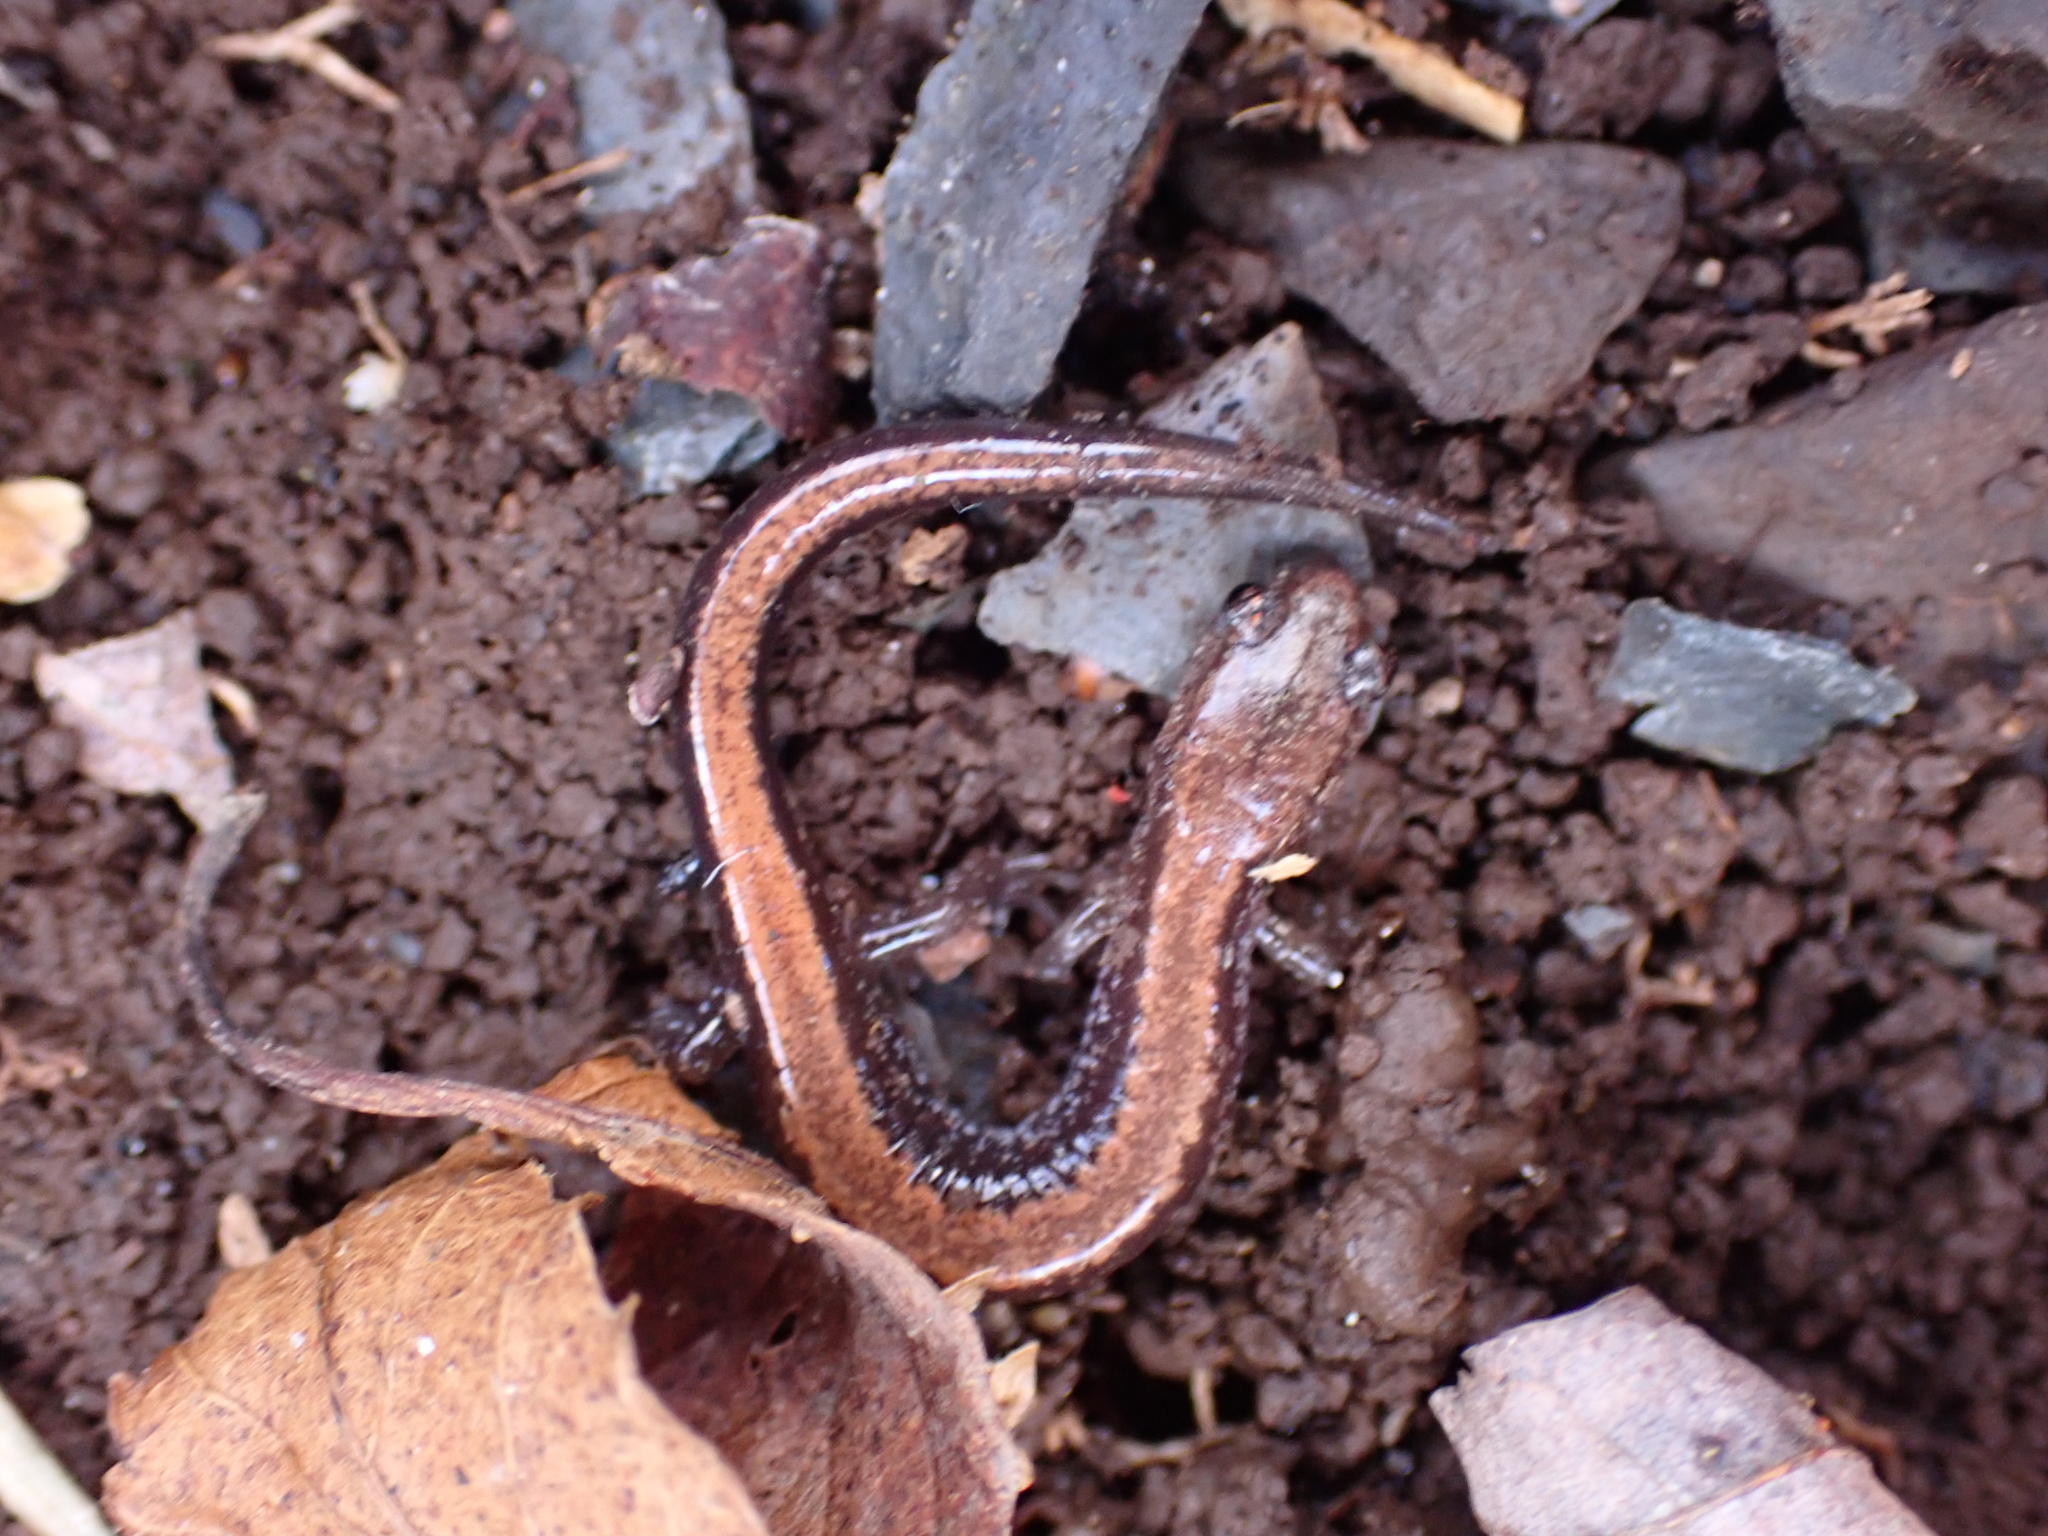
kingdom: Animalia
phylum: Chordata
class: Amphibia
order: Caudata
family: Plethodontidae
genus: Plethodon
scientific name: Plethodon cinereus
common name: Redback salamander
